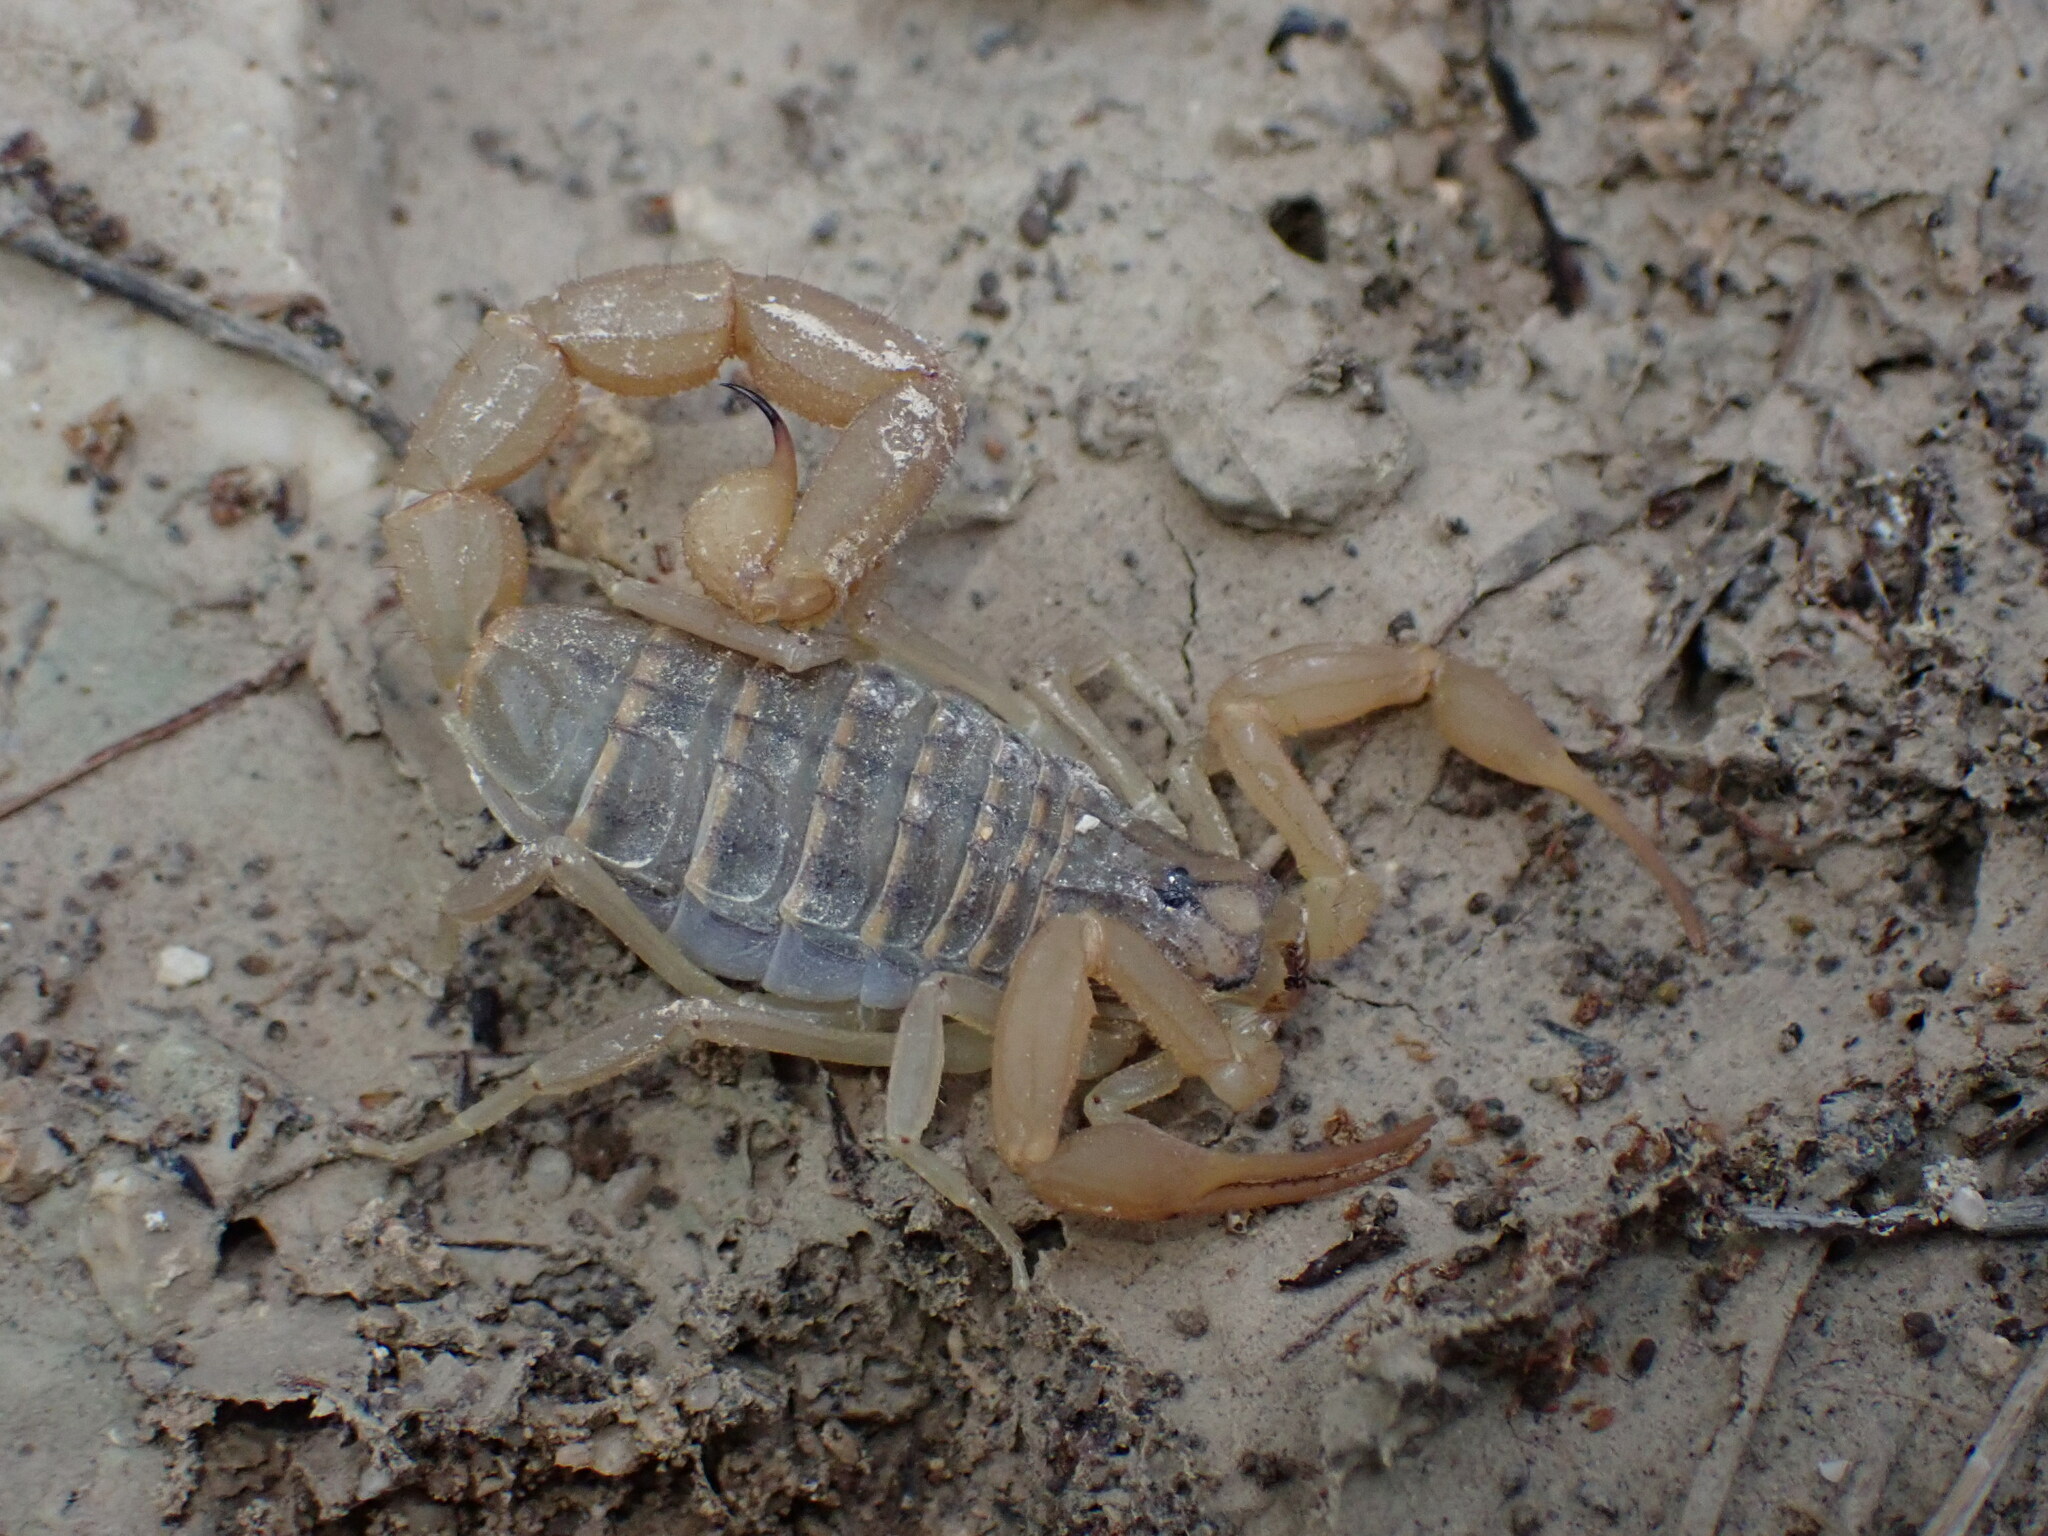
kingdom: Animalia
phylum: Arthropoda
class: Arachnida
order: Scorpiones
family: Buthidae
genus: Aegaeobuthus
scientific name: Aegaeobuthus gibbosus
